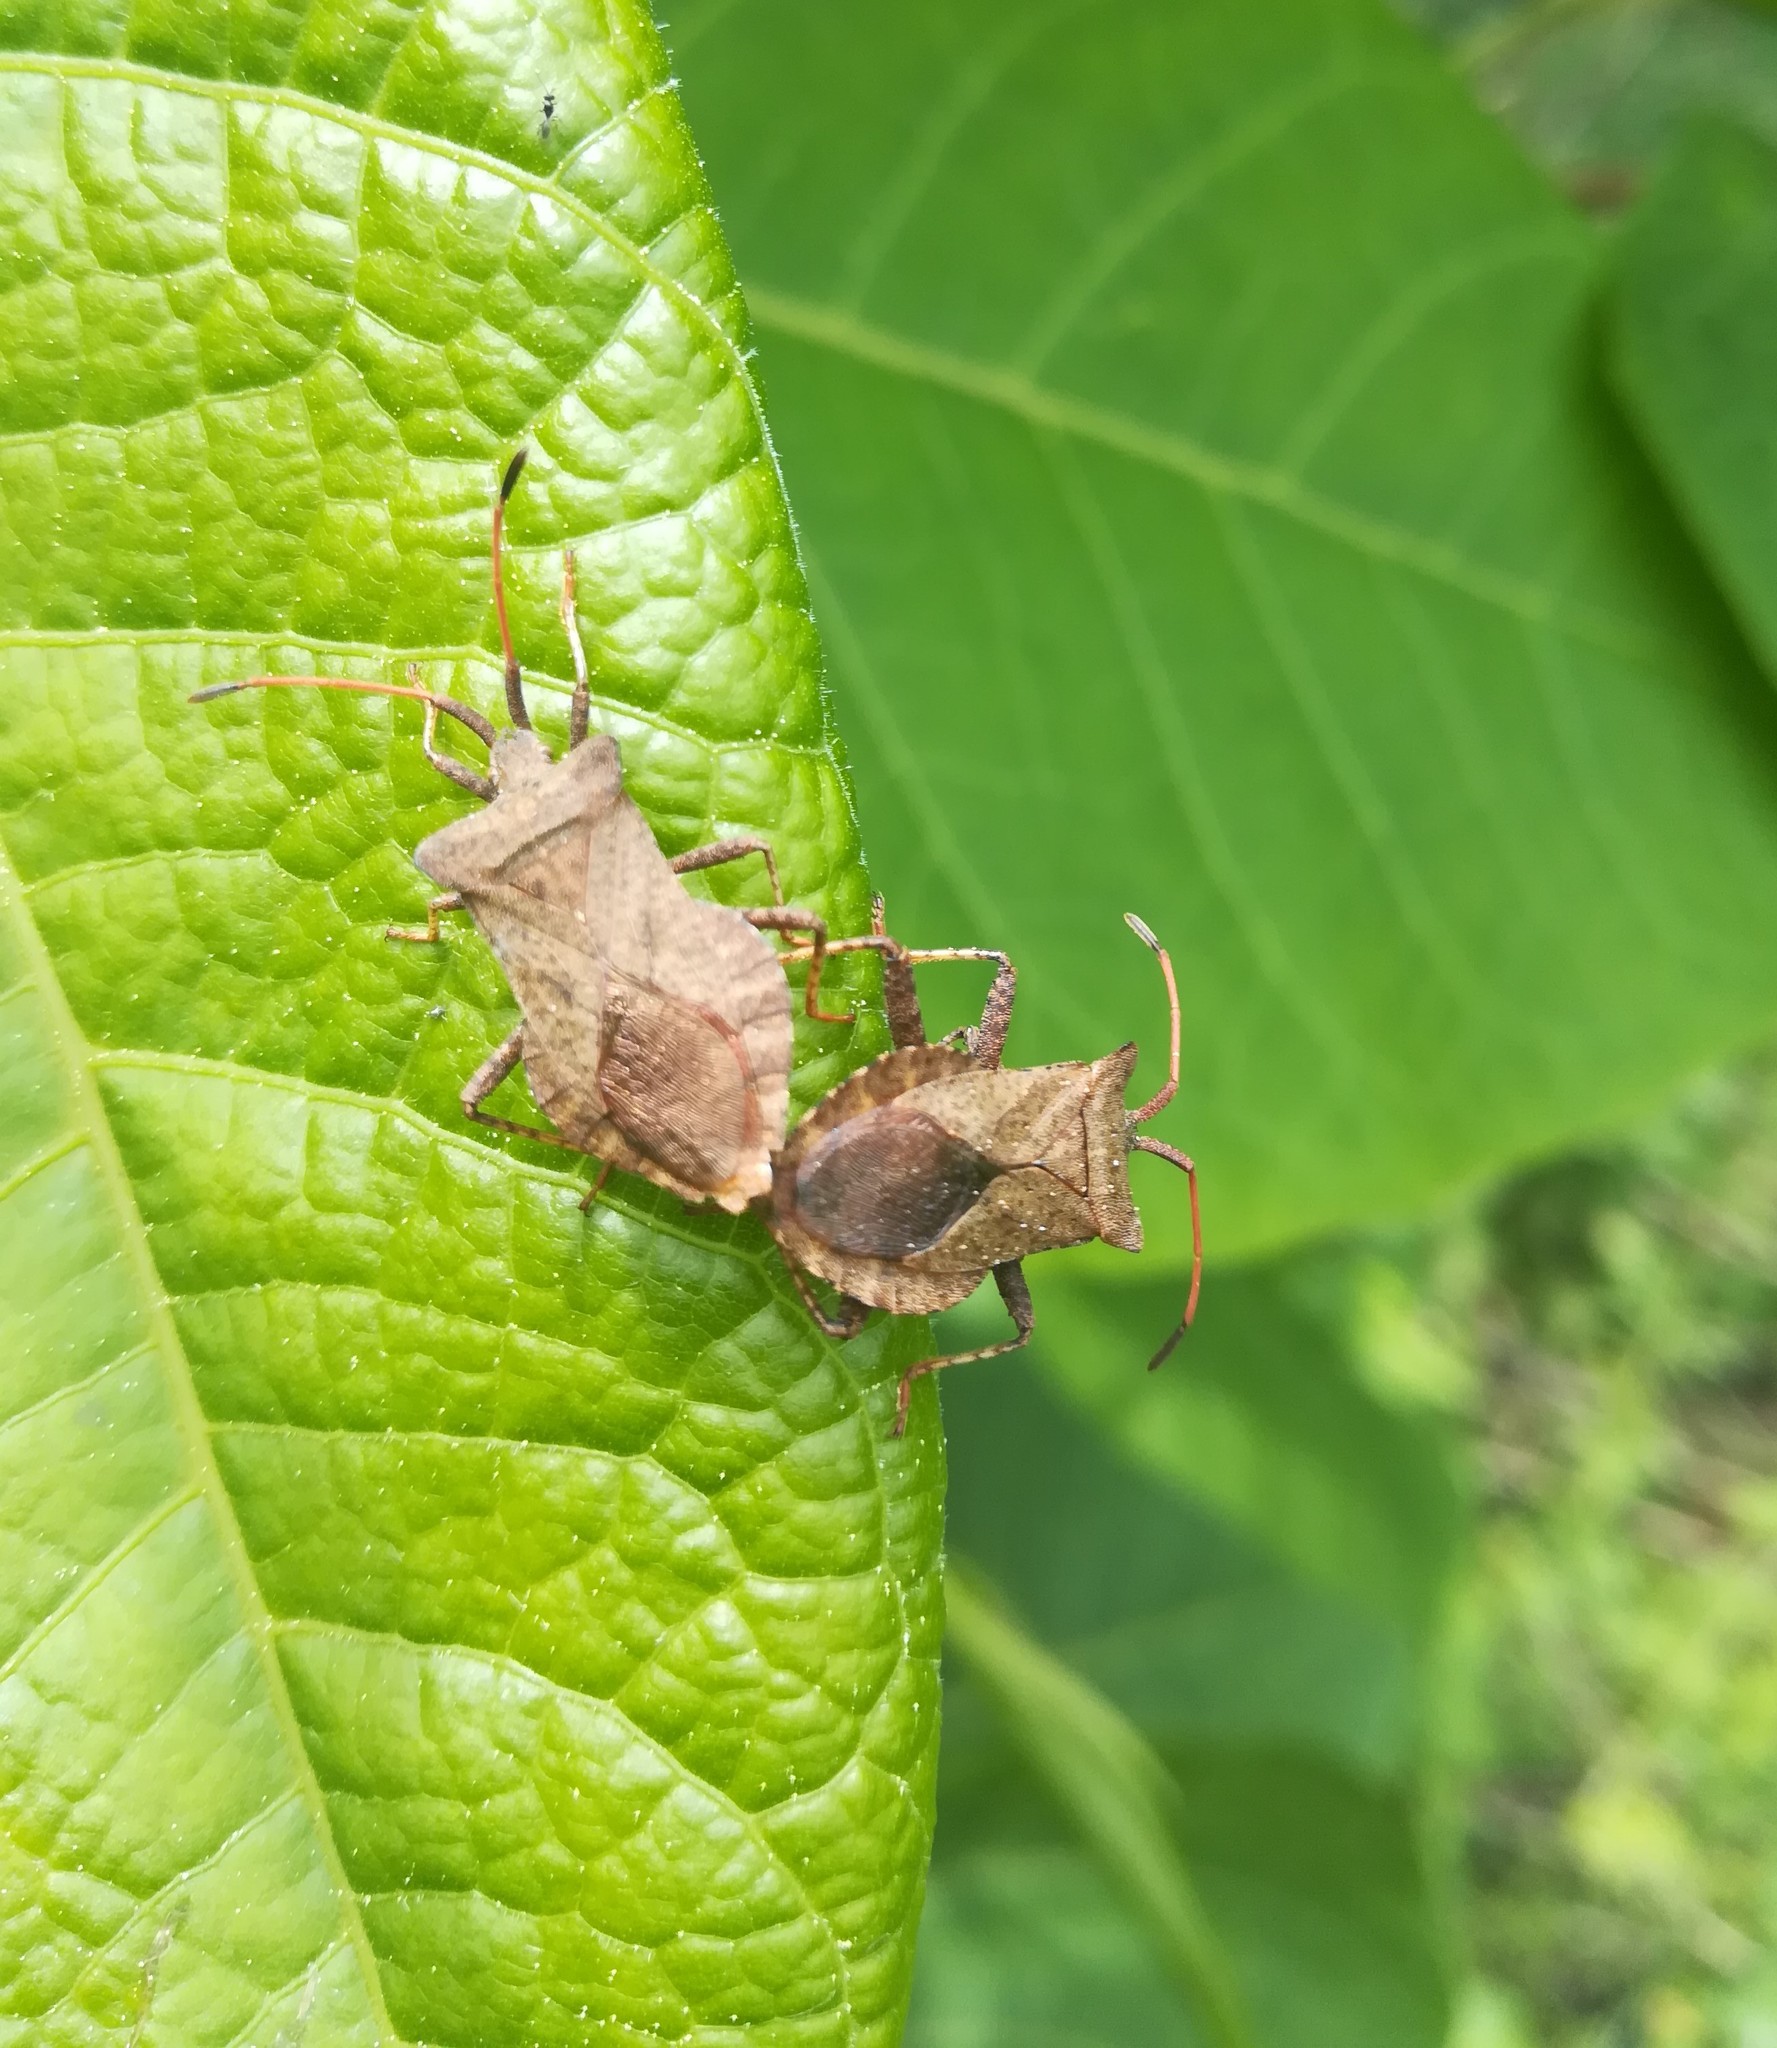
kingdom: Animalia
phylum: Arthropoda
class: Insecta
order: Hemiptera
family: Coreidae
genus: Coreus
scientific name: Coreus marginatus
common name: Dock bug
